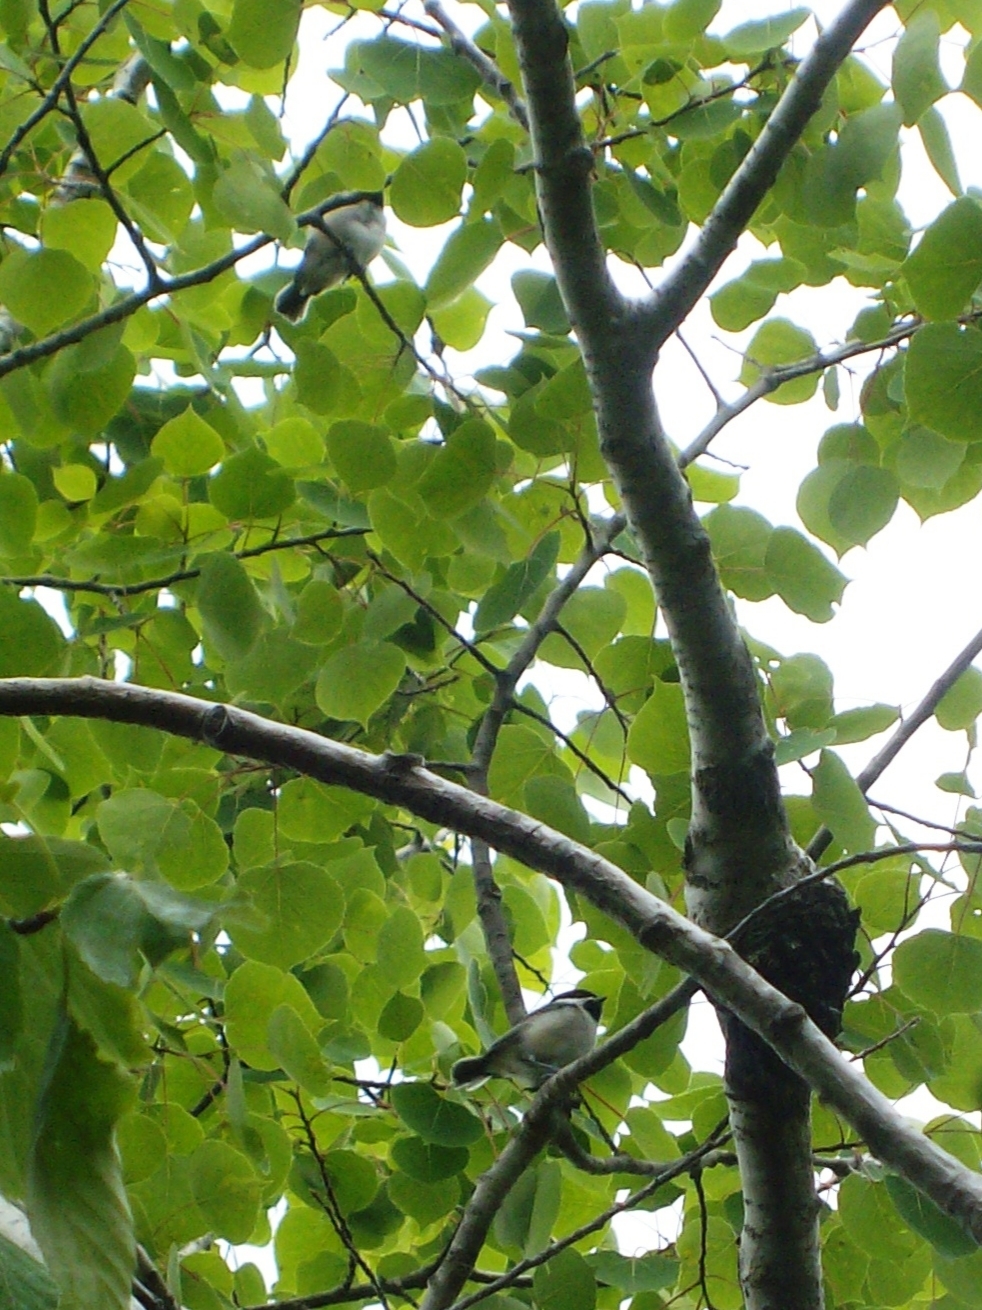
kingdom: Animalia
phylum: Chordata
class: Aves
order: Passeriformes
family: Paridae
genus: Poecile
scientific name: Poecile atricapillus
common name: Black-capped chickadee
